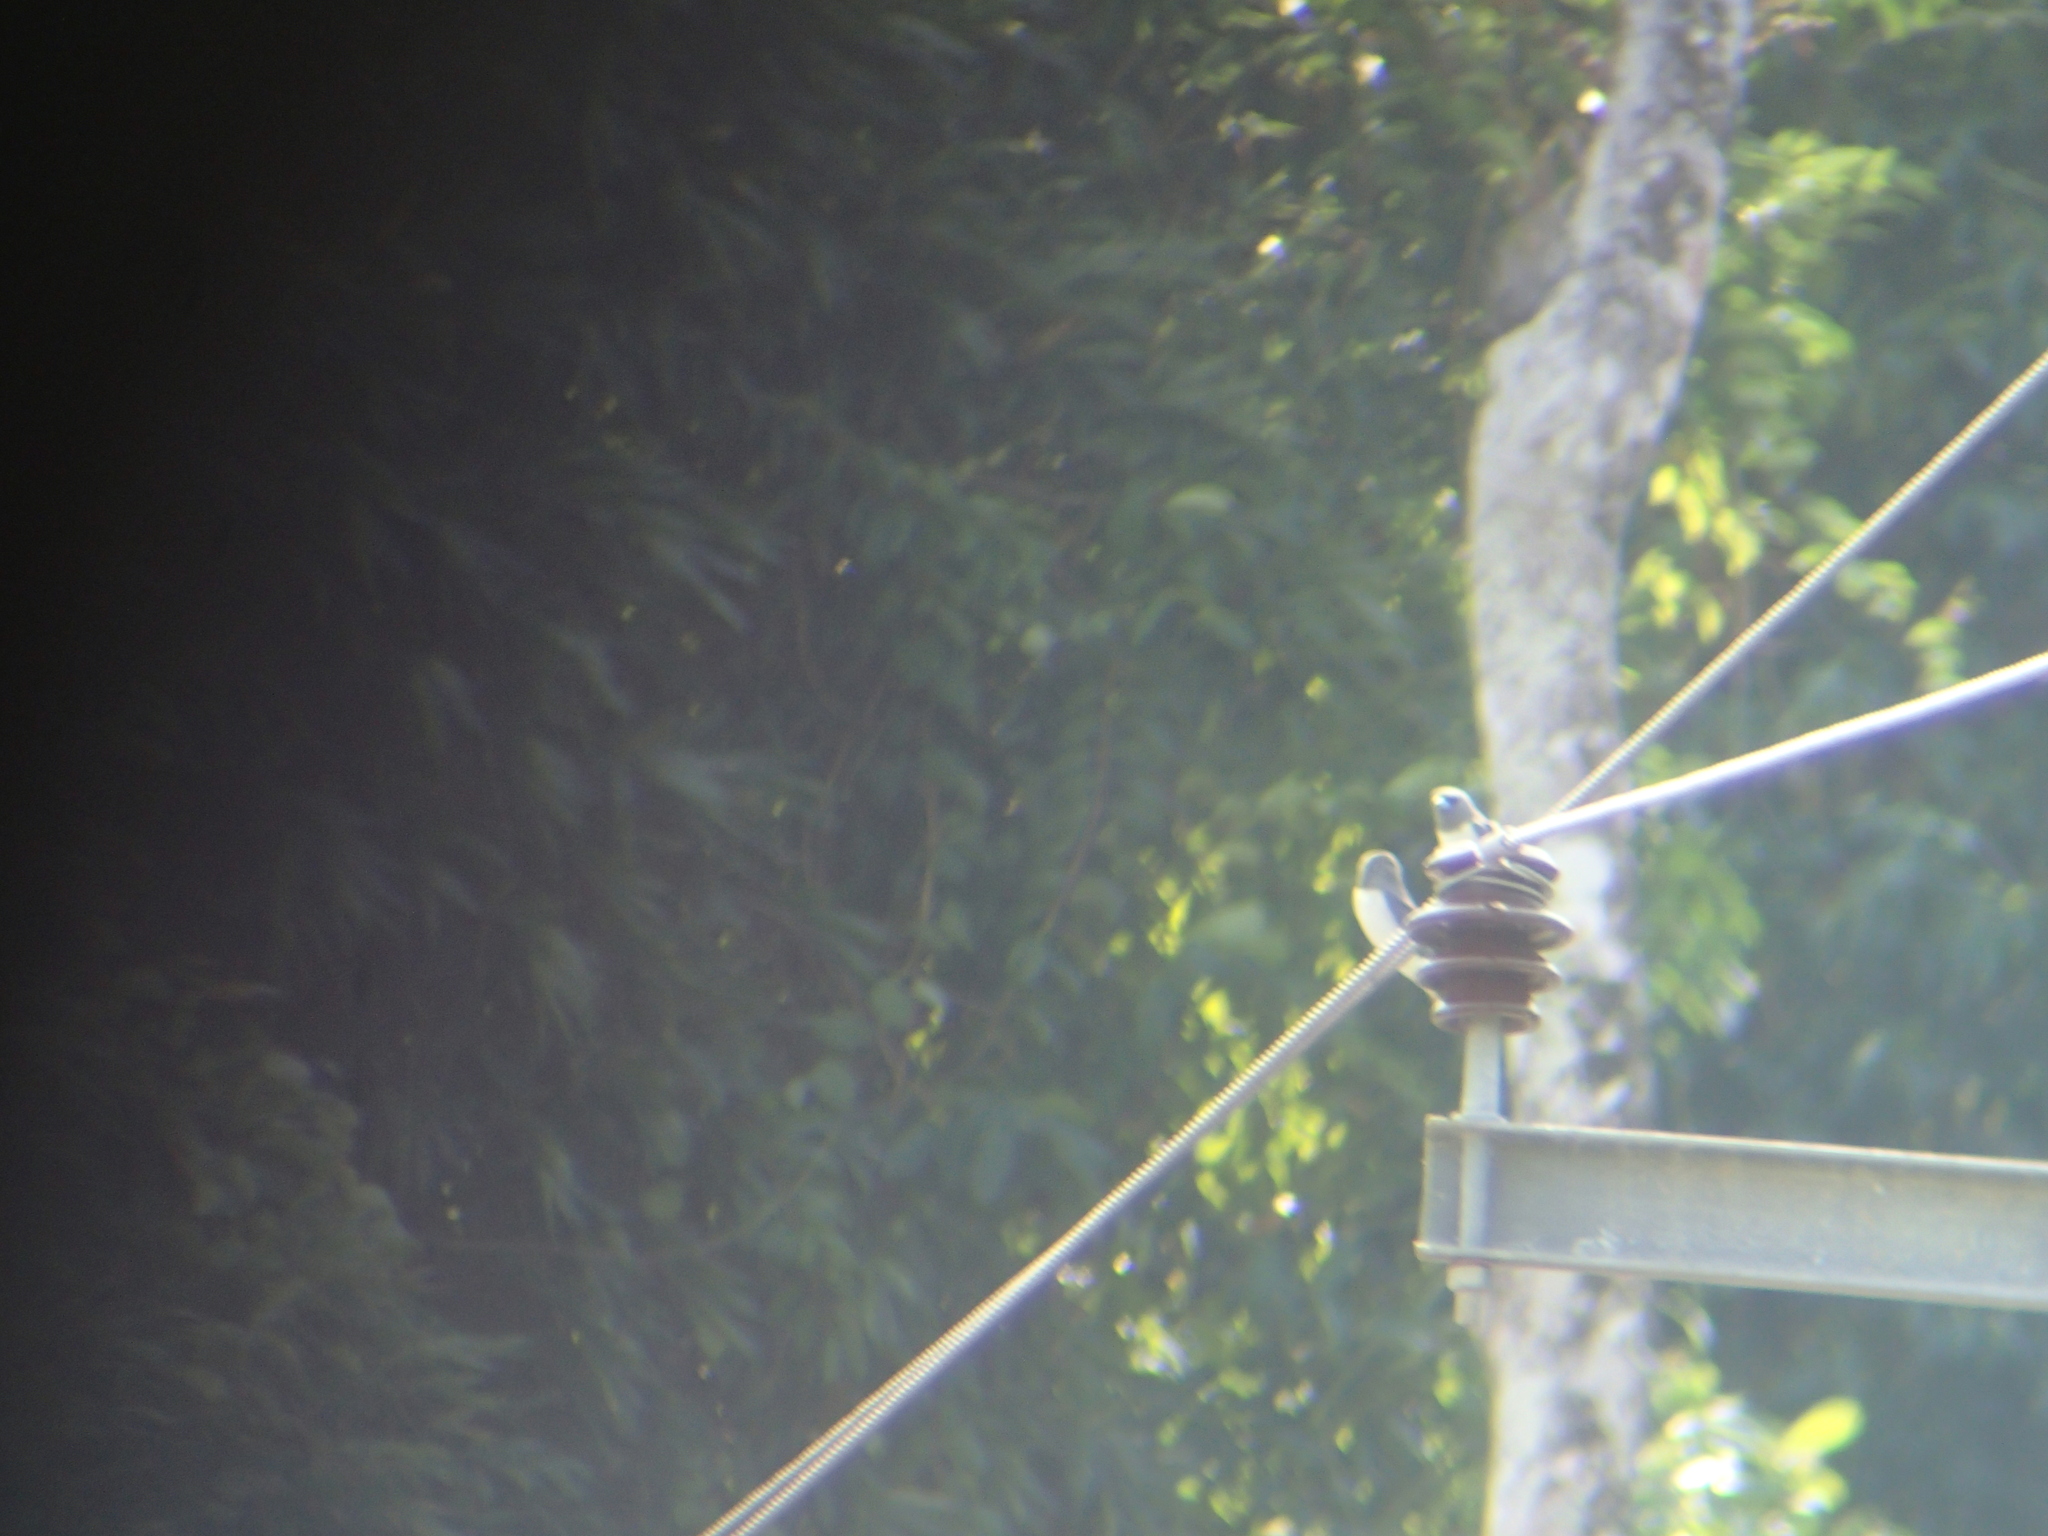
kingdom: Animalia
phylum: Chordata
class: Aves
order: Passeriformes
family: Artamidae
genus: Artamus
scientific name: Artamus leucoryn
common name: White-breasted woodswallow
